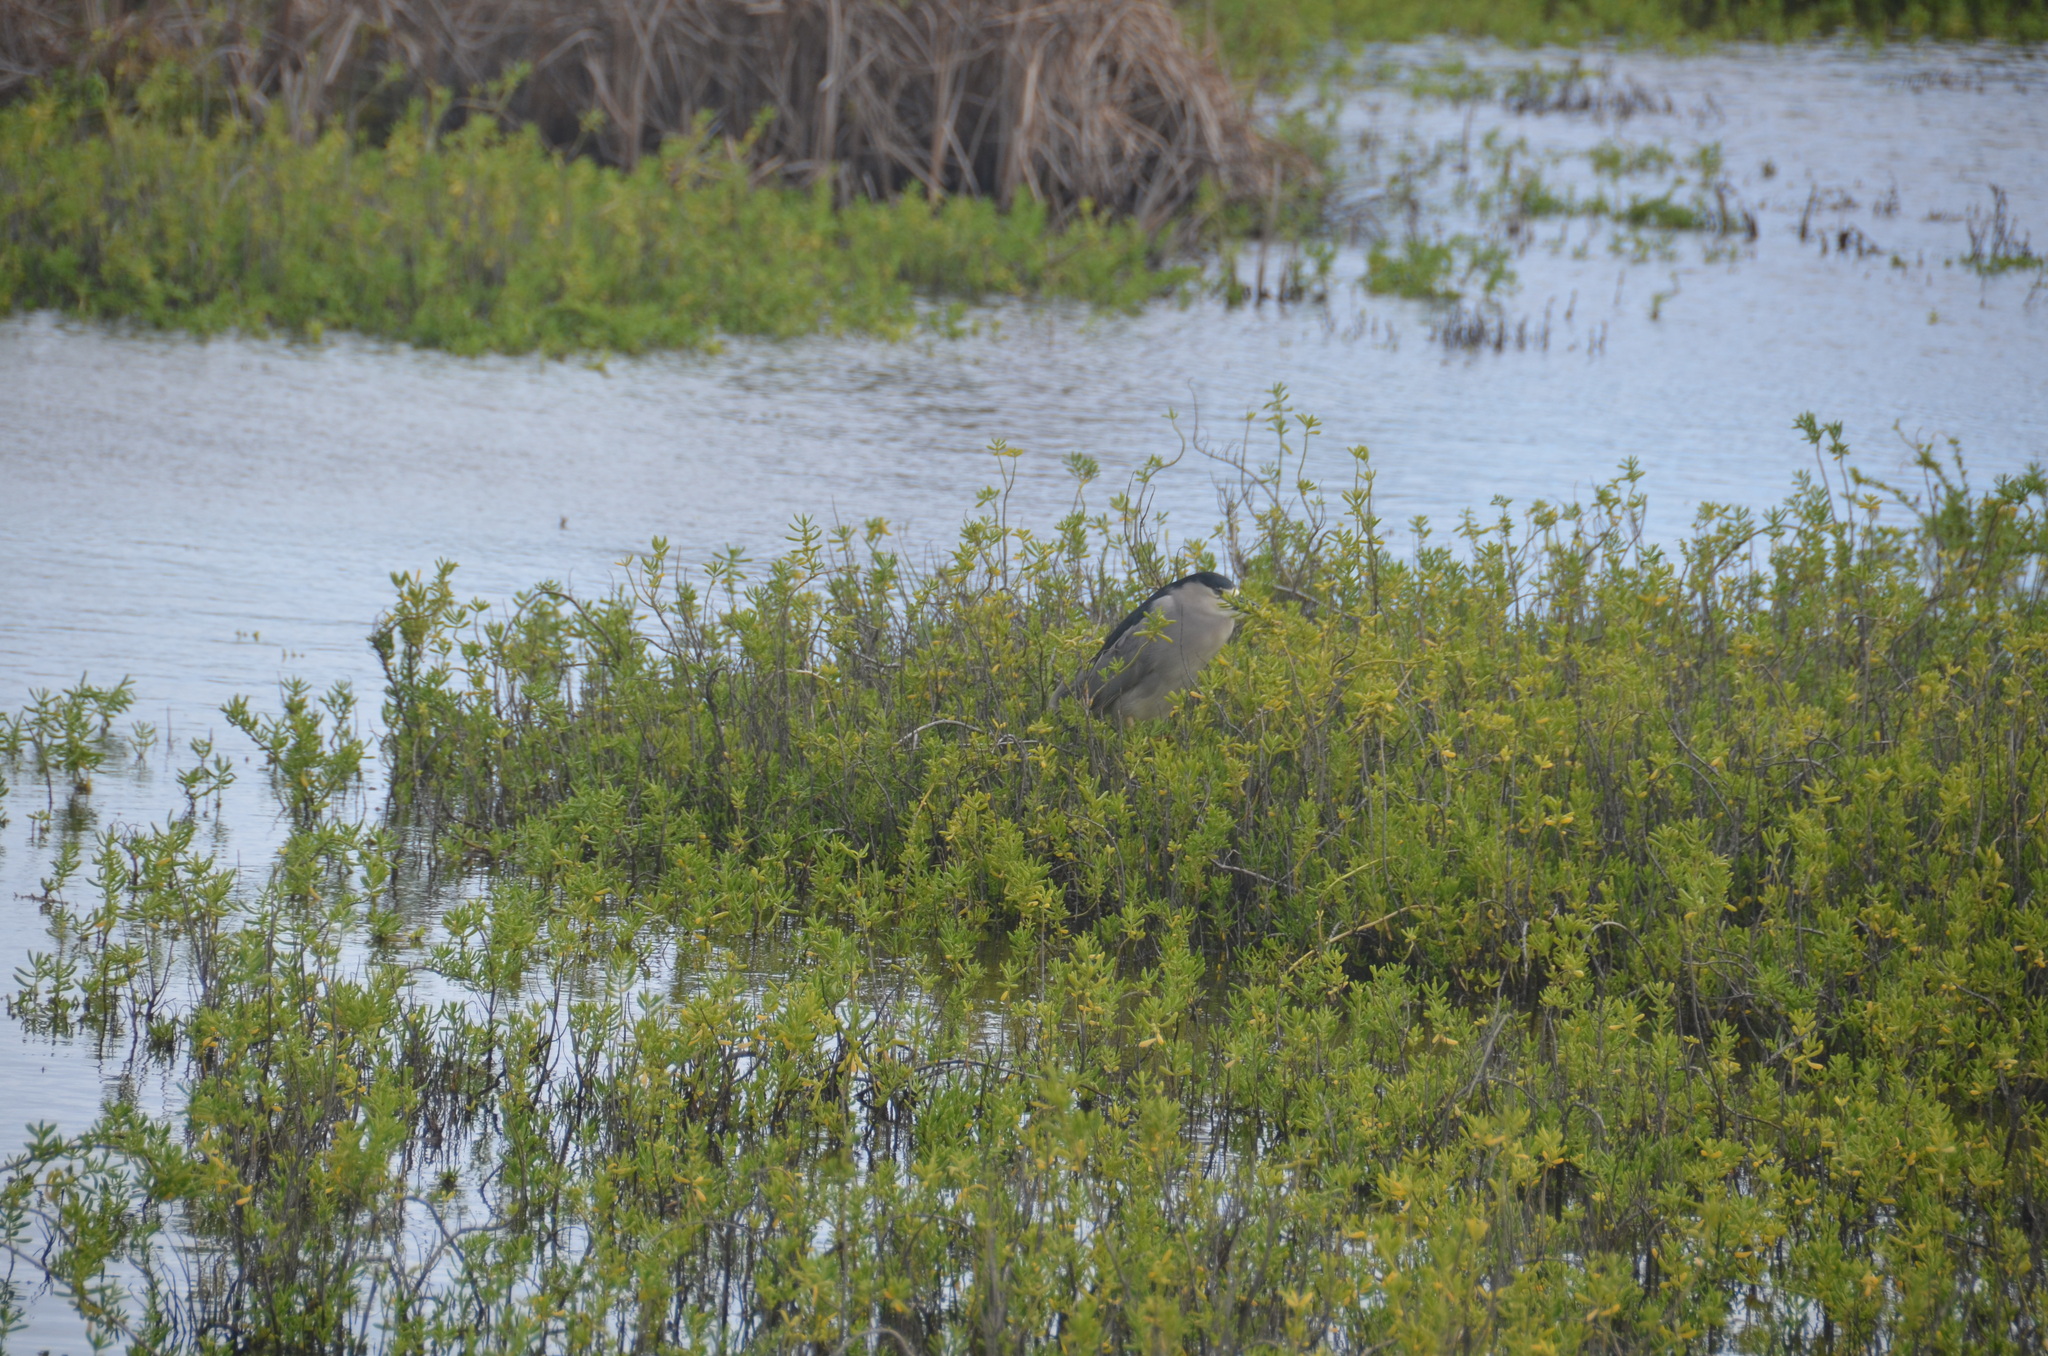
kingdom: Animalia
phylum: Chordata
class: Aves
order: Pelecaniformes
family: Ardeidae
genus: Nycticorax
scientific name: Nycticorax nycticorax
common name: Black-crowned night heron
